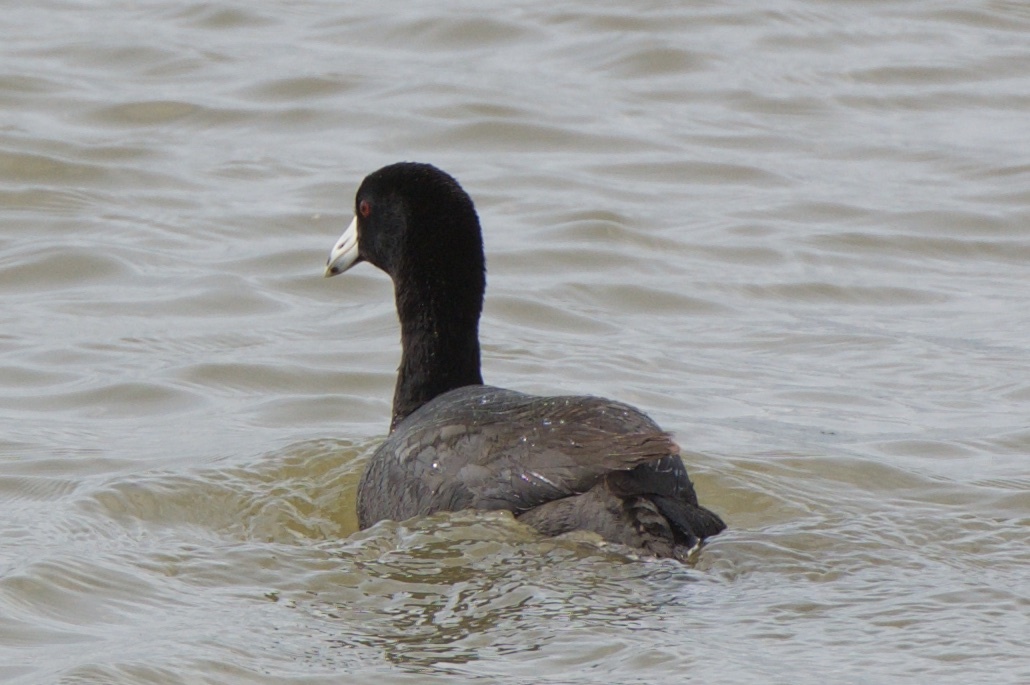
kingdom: Animalia
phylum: Chordata
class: Aves
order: Gruiformes
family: Rallidae
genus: Fulica
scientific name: Fulica americana
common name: American coot
